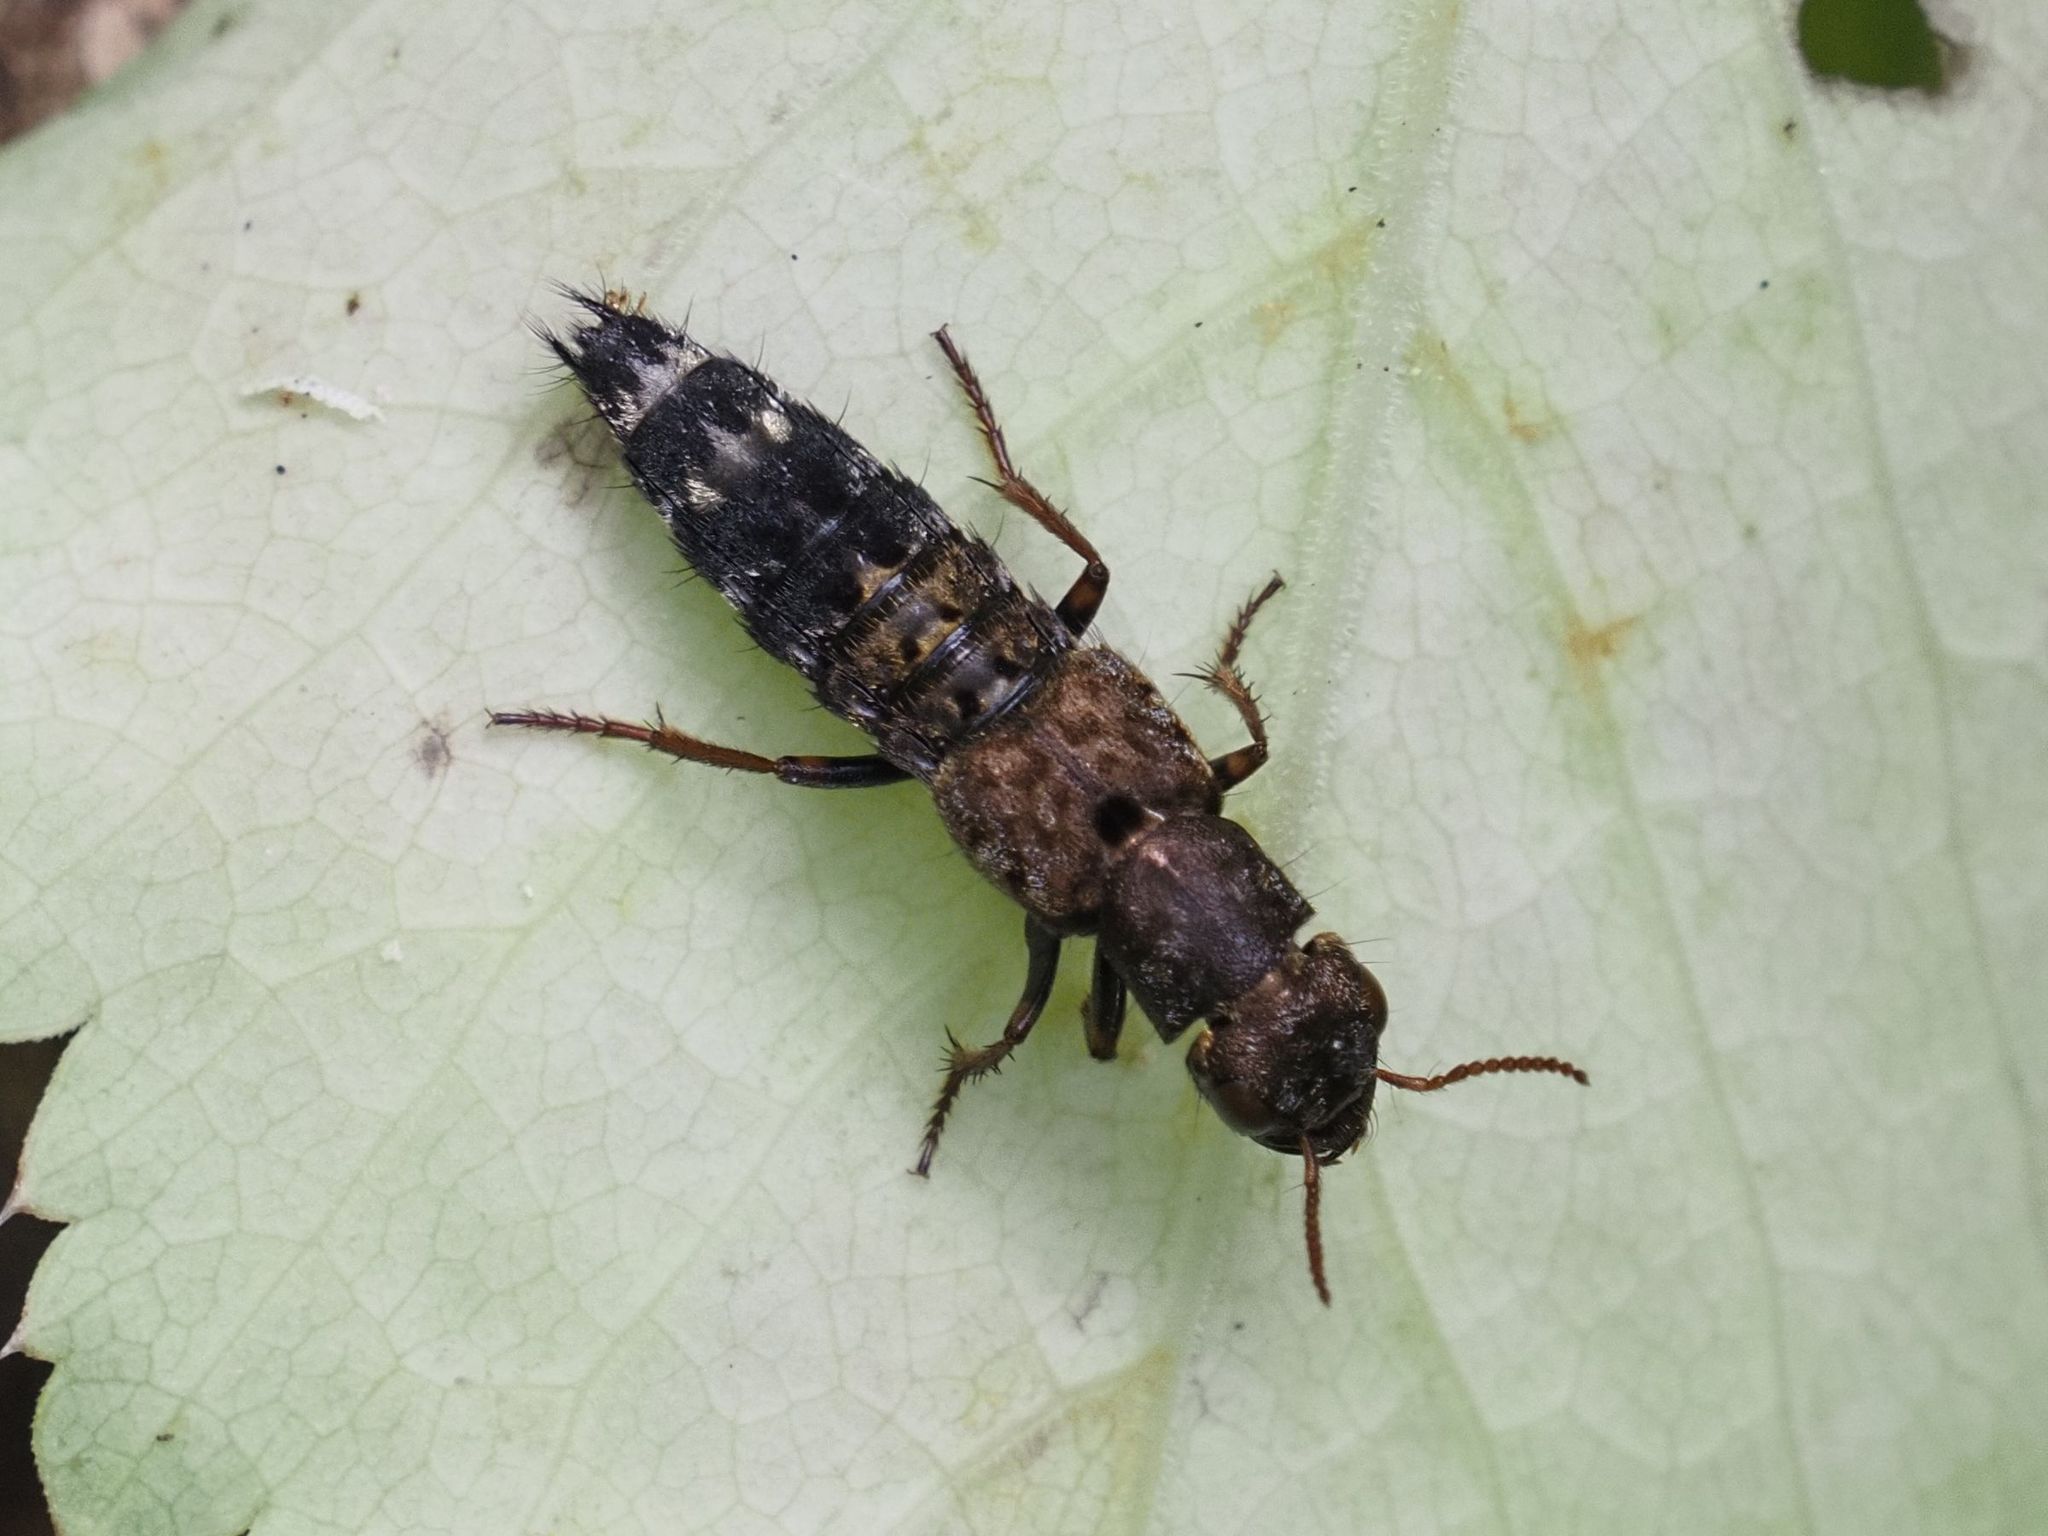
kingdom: Animalia
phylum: Arthropoda
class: Insecta
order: Coleoptera
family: Staphylinidae
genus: Ontholestes
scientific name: Ontholestes haroldi
